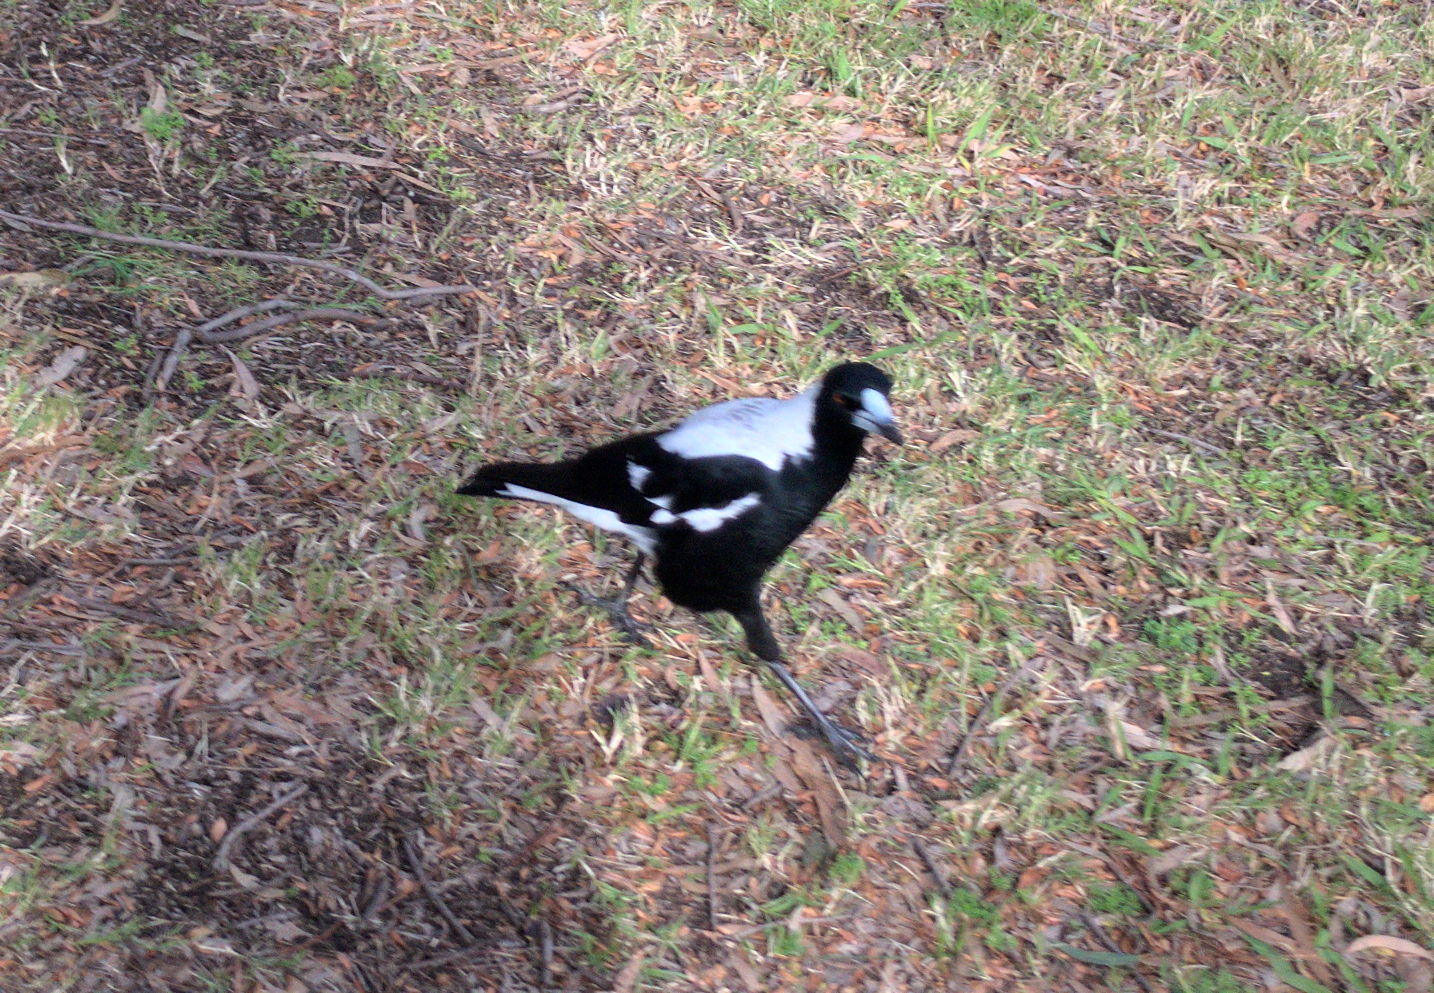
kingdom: Animalia
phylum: Chordata
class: Aves
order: Passeriformes
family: Cracticidae
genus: Gymnorhina
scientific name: Gymnorhina tibicen
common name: Australian magpie
